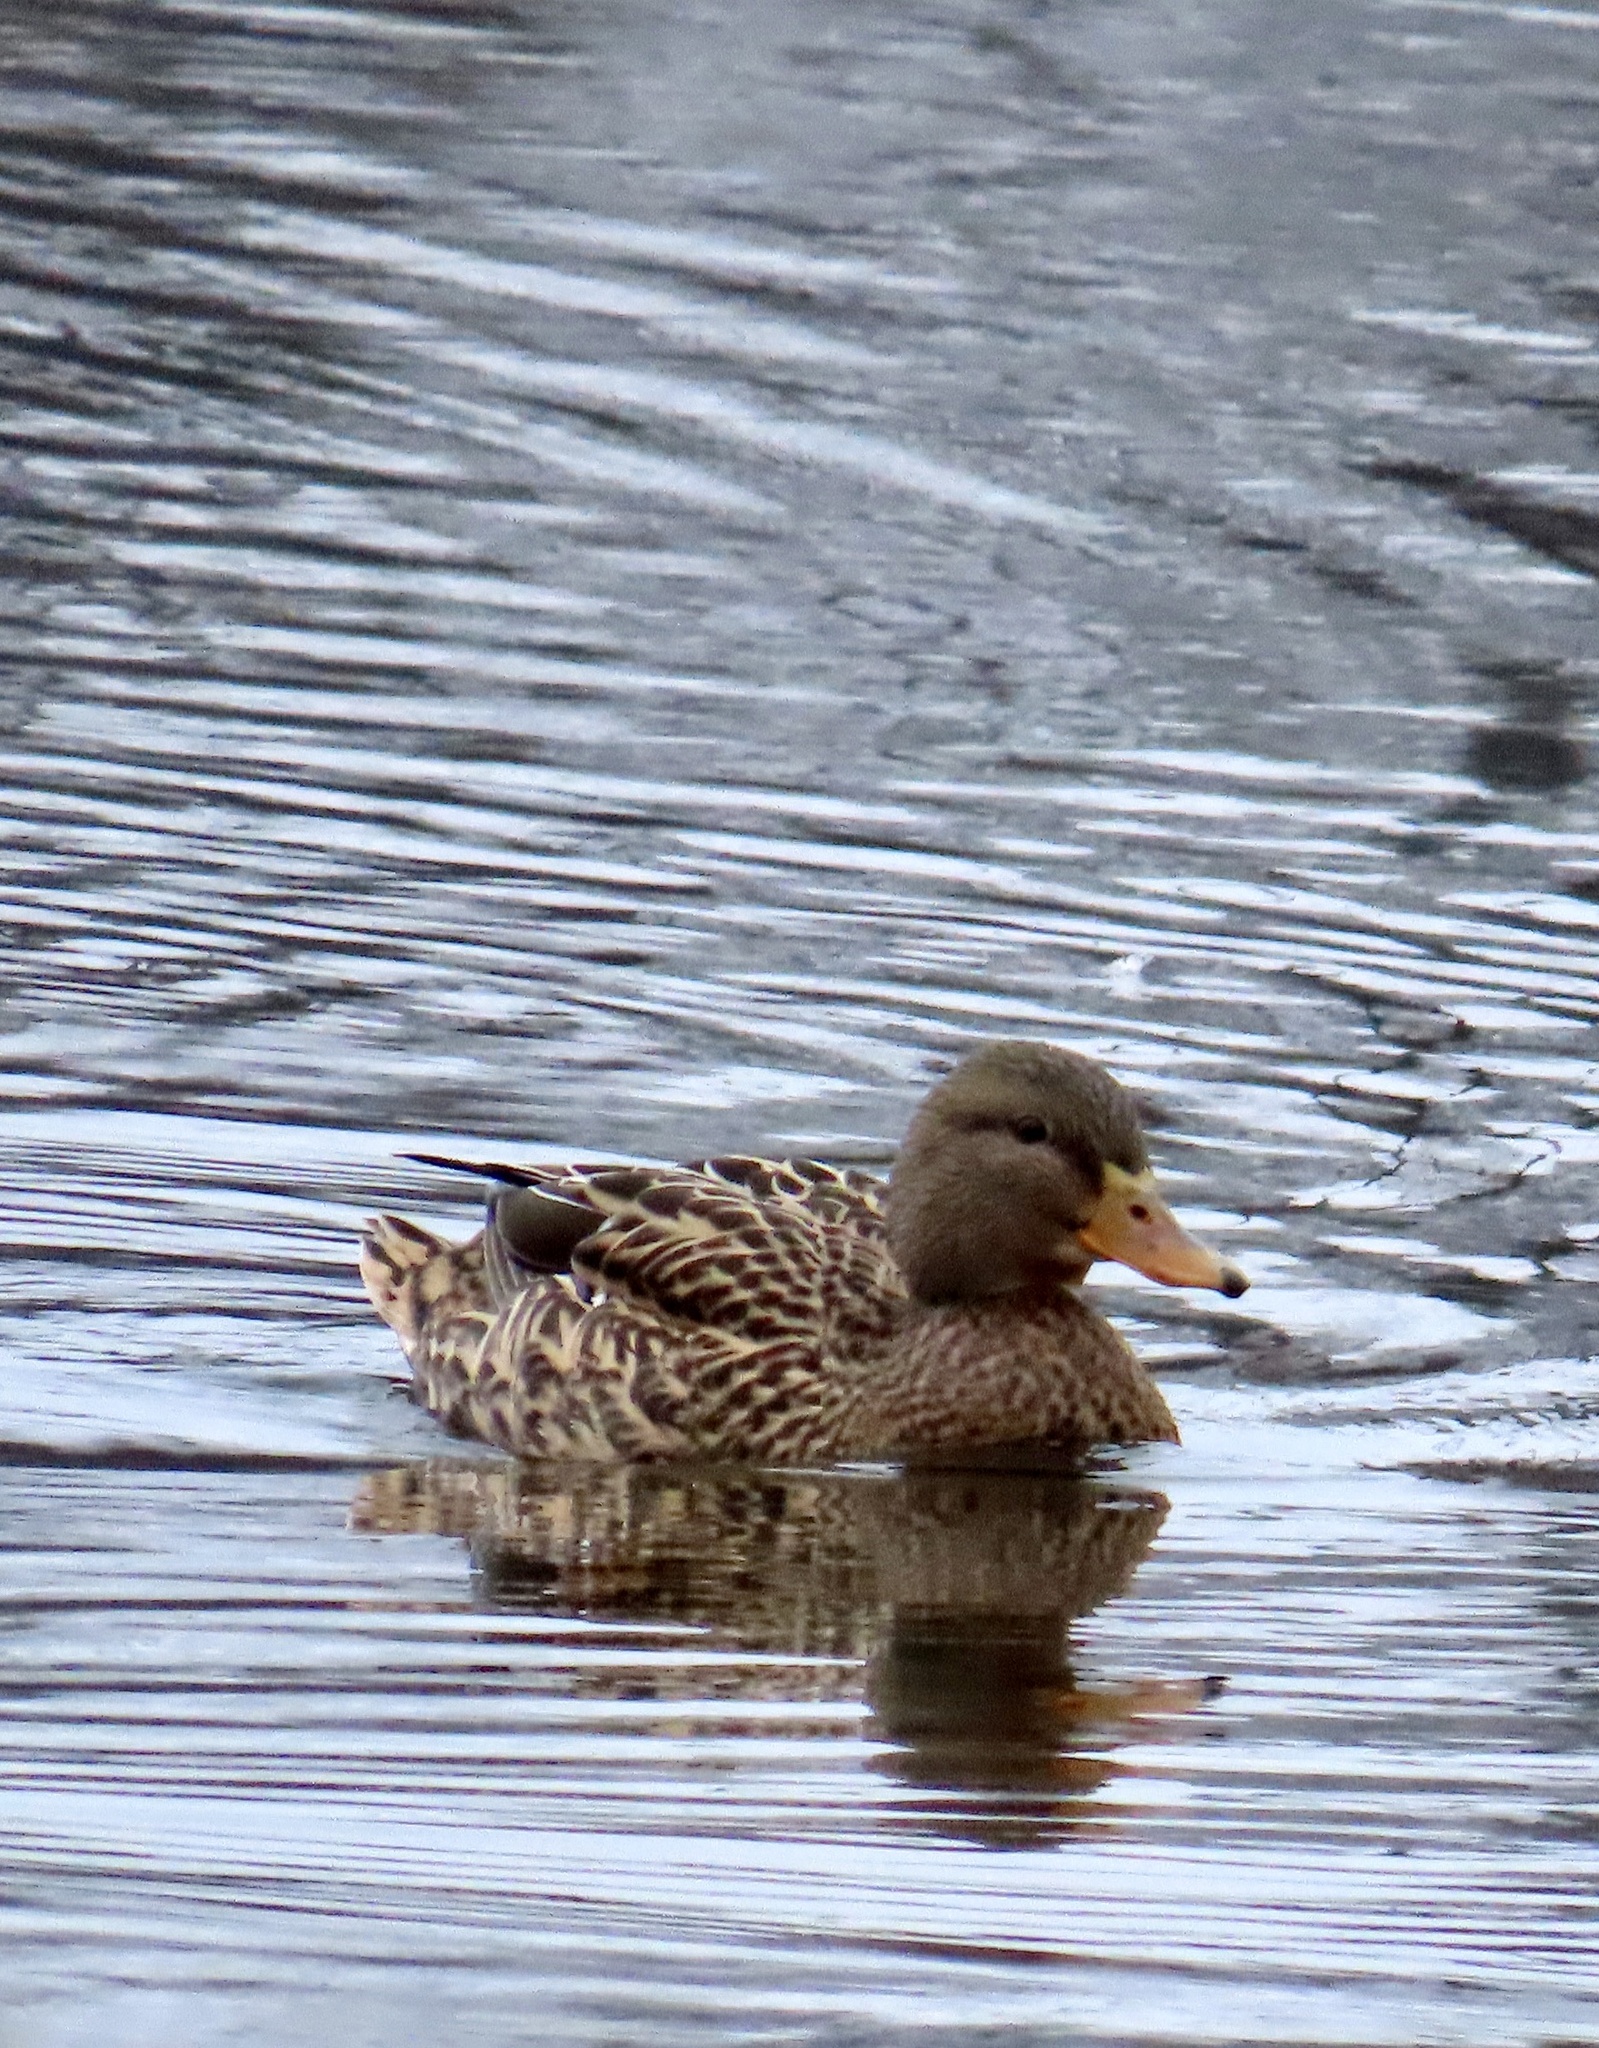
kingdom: Animalia
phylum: Chordata
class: Aves
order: Anseriformes
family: Anatidae
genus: Anas
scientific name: Anas platyrhynchos
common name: Mallard
